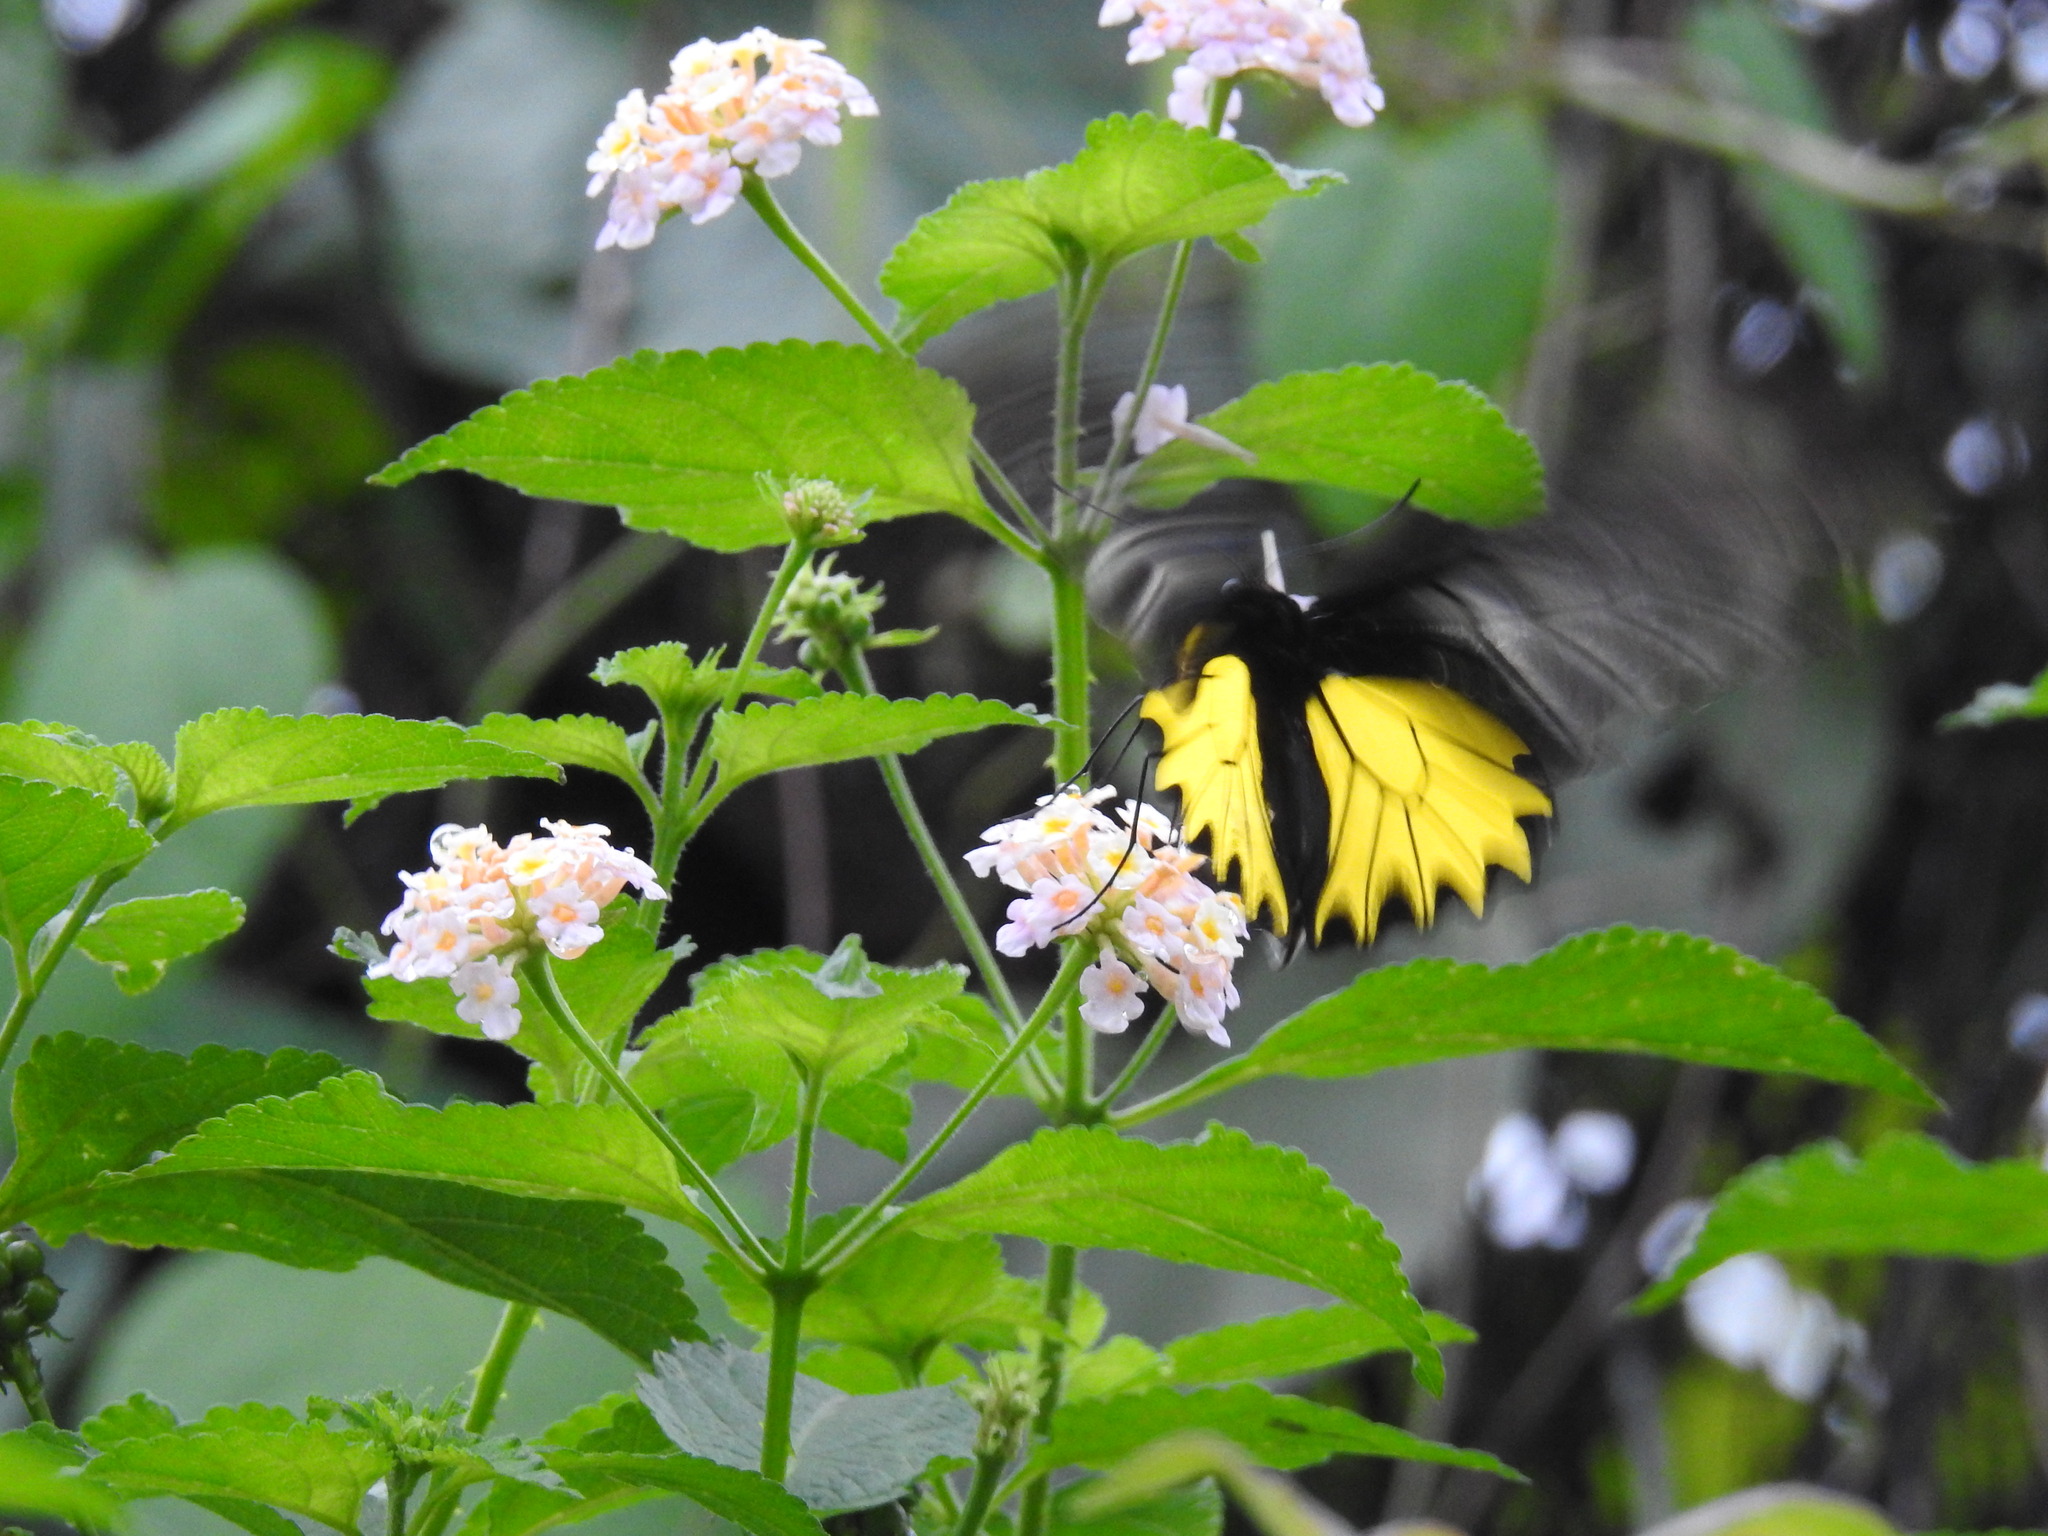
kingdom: Animalia
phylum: Arthropoda
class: Insecta
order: Lepidoptera
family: Papilionidae
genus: Troides
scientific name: Troides aeacus
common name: Golden birdwing
